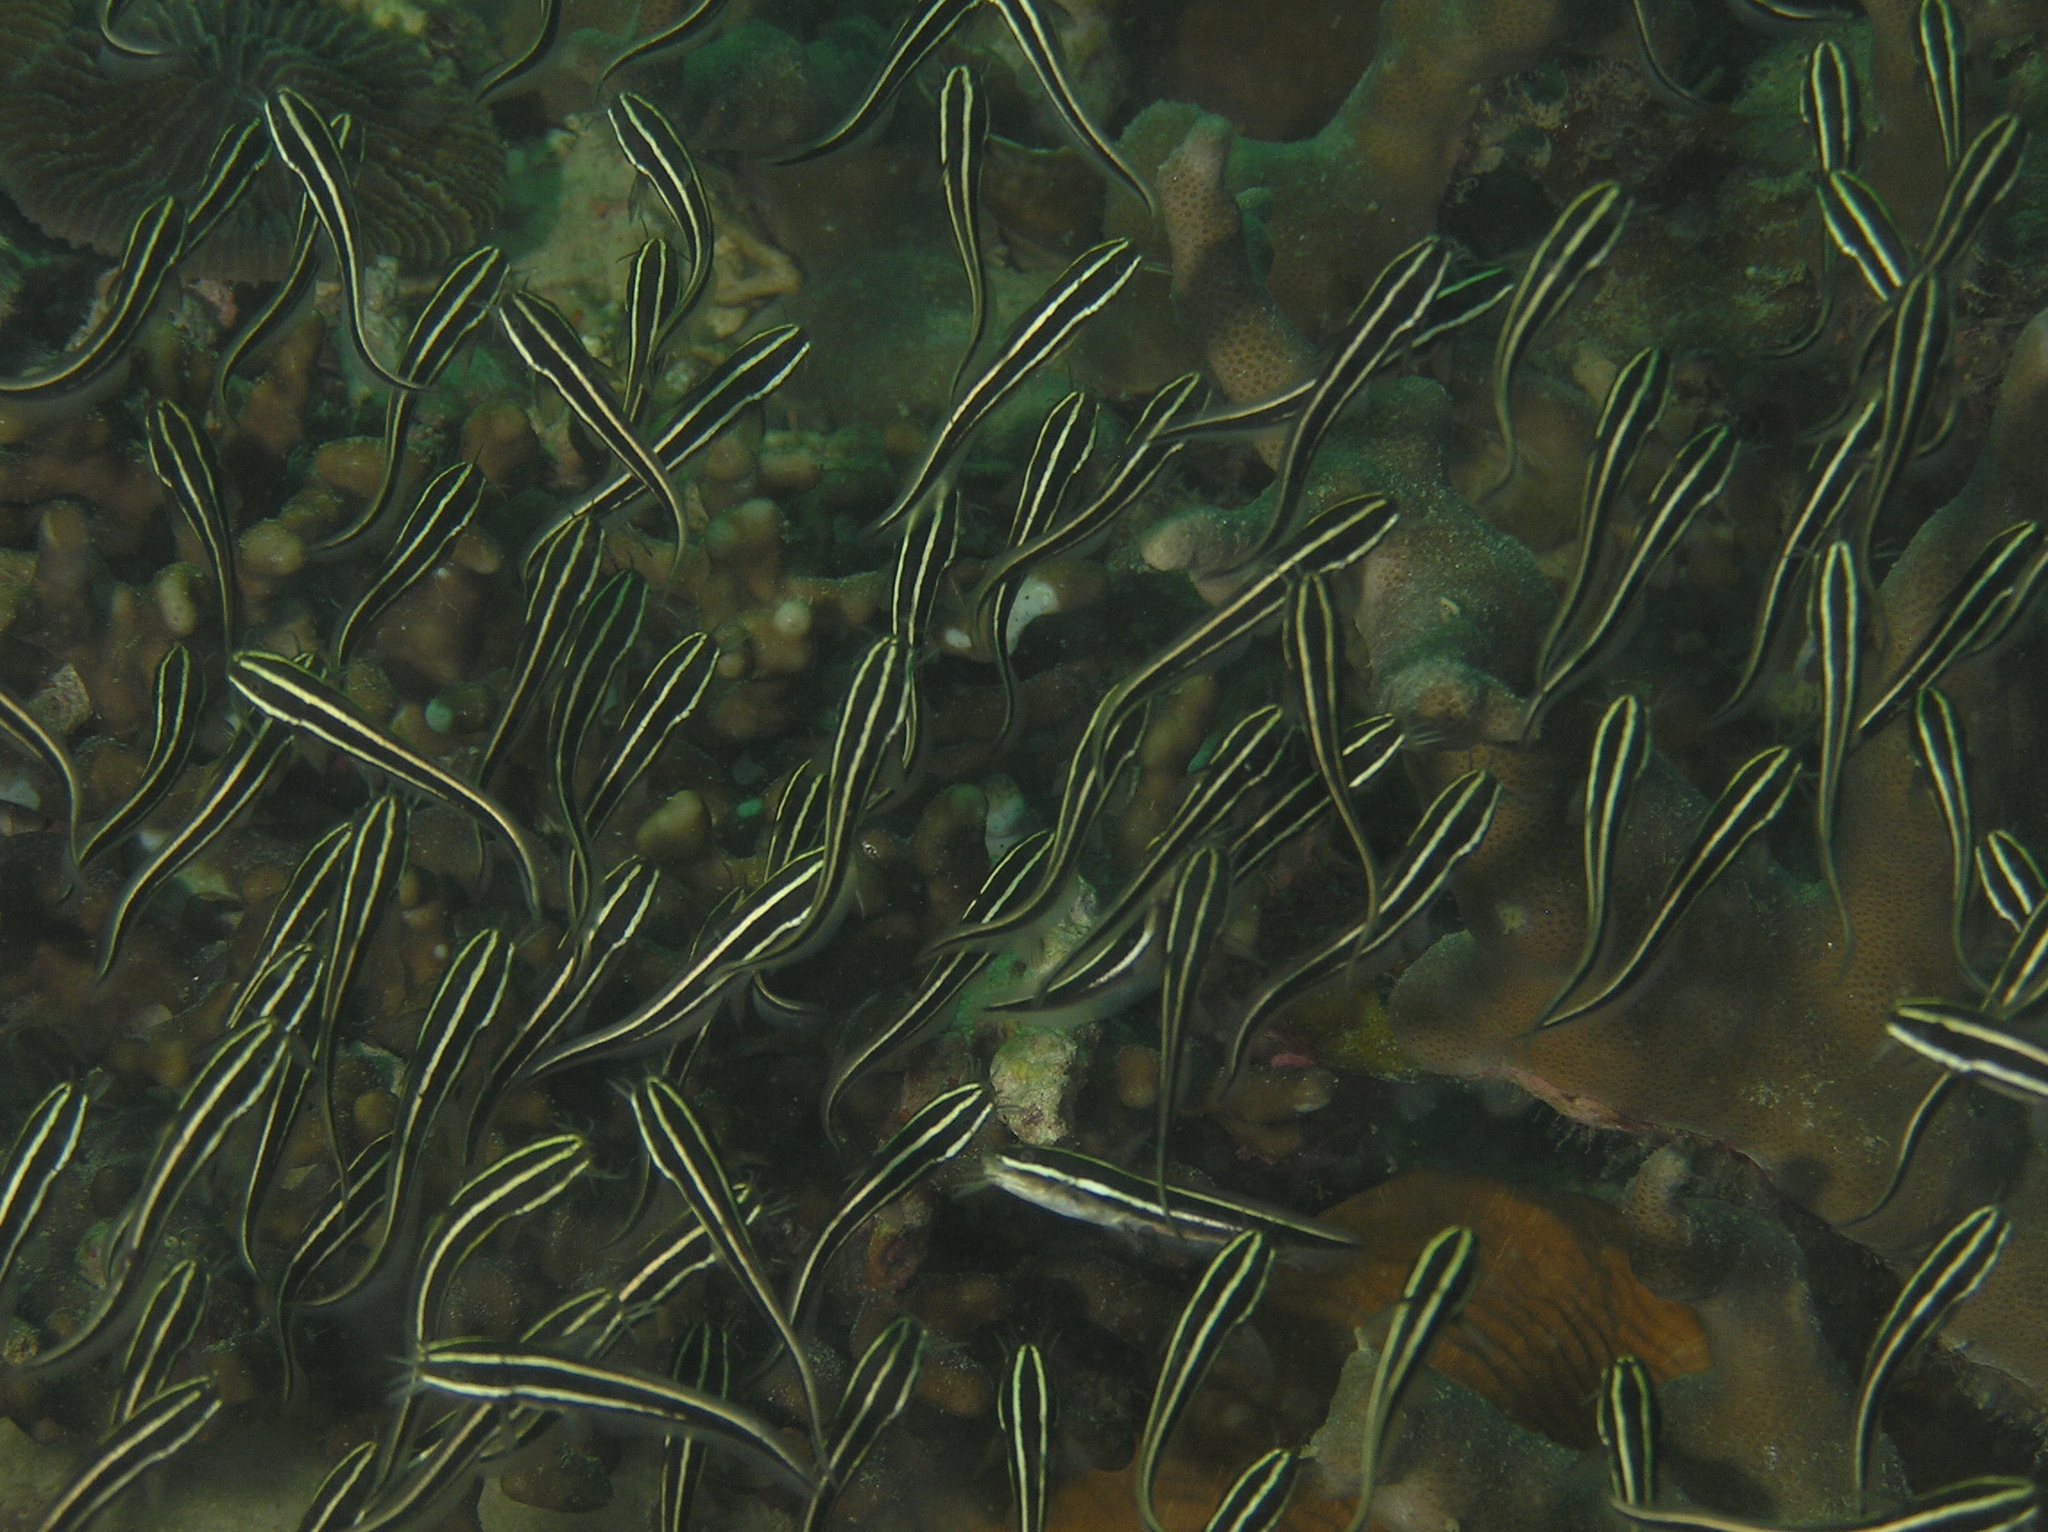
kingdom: Animalia
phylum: Chordata
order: Siluriformes
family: Plotosidae
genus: Plotosus
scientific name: Plotosus lineatus
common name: Striped eel catfish
